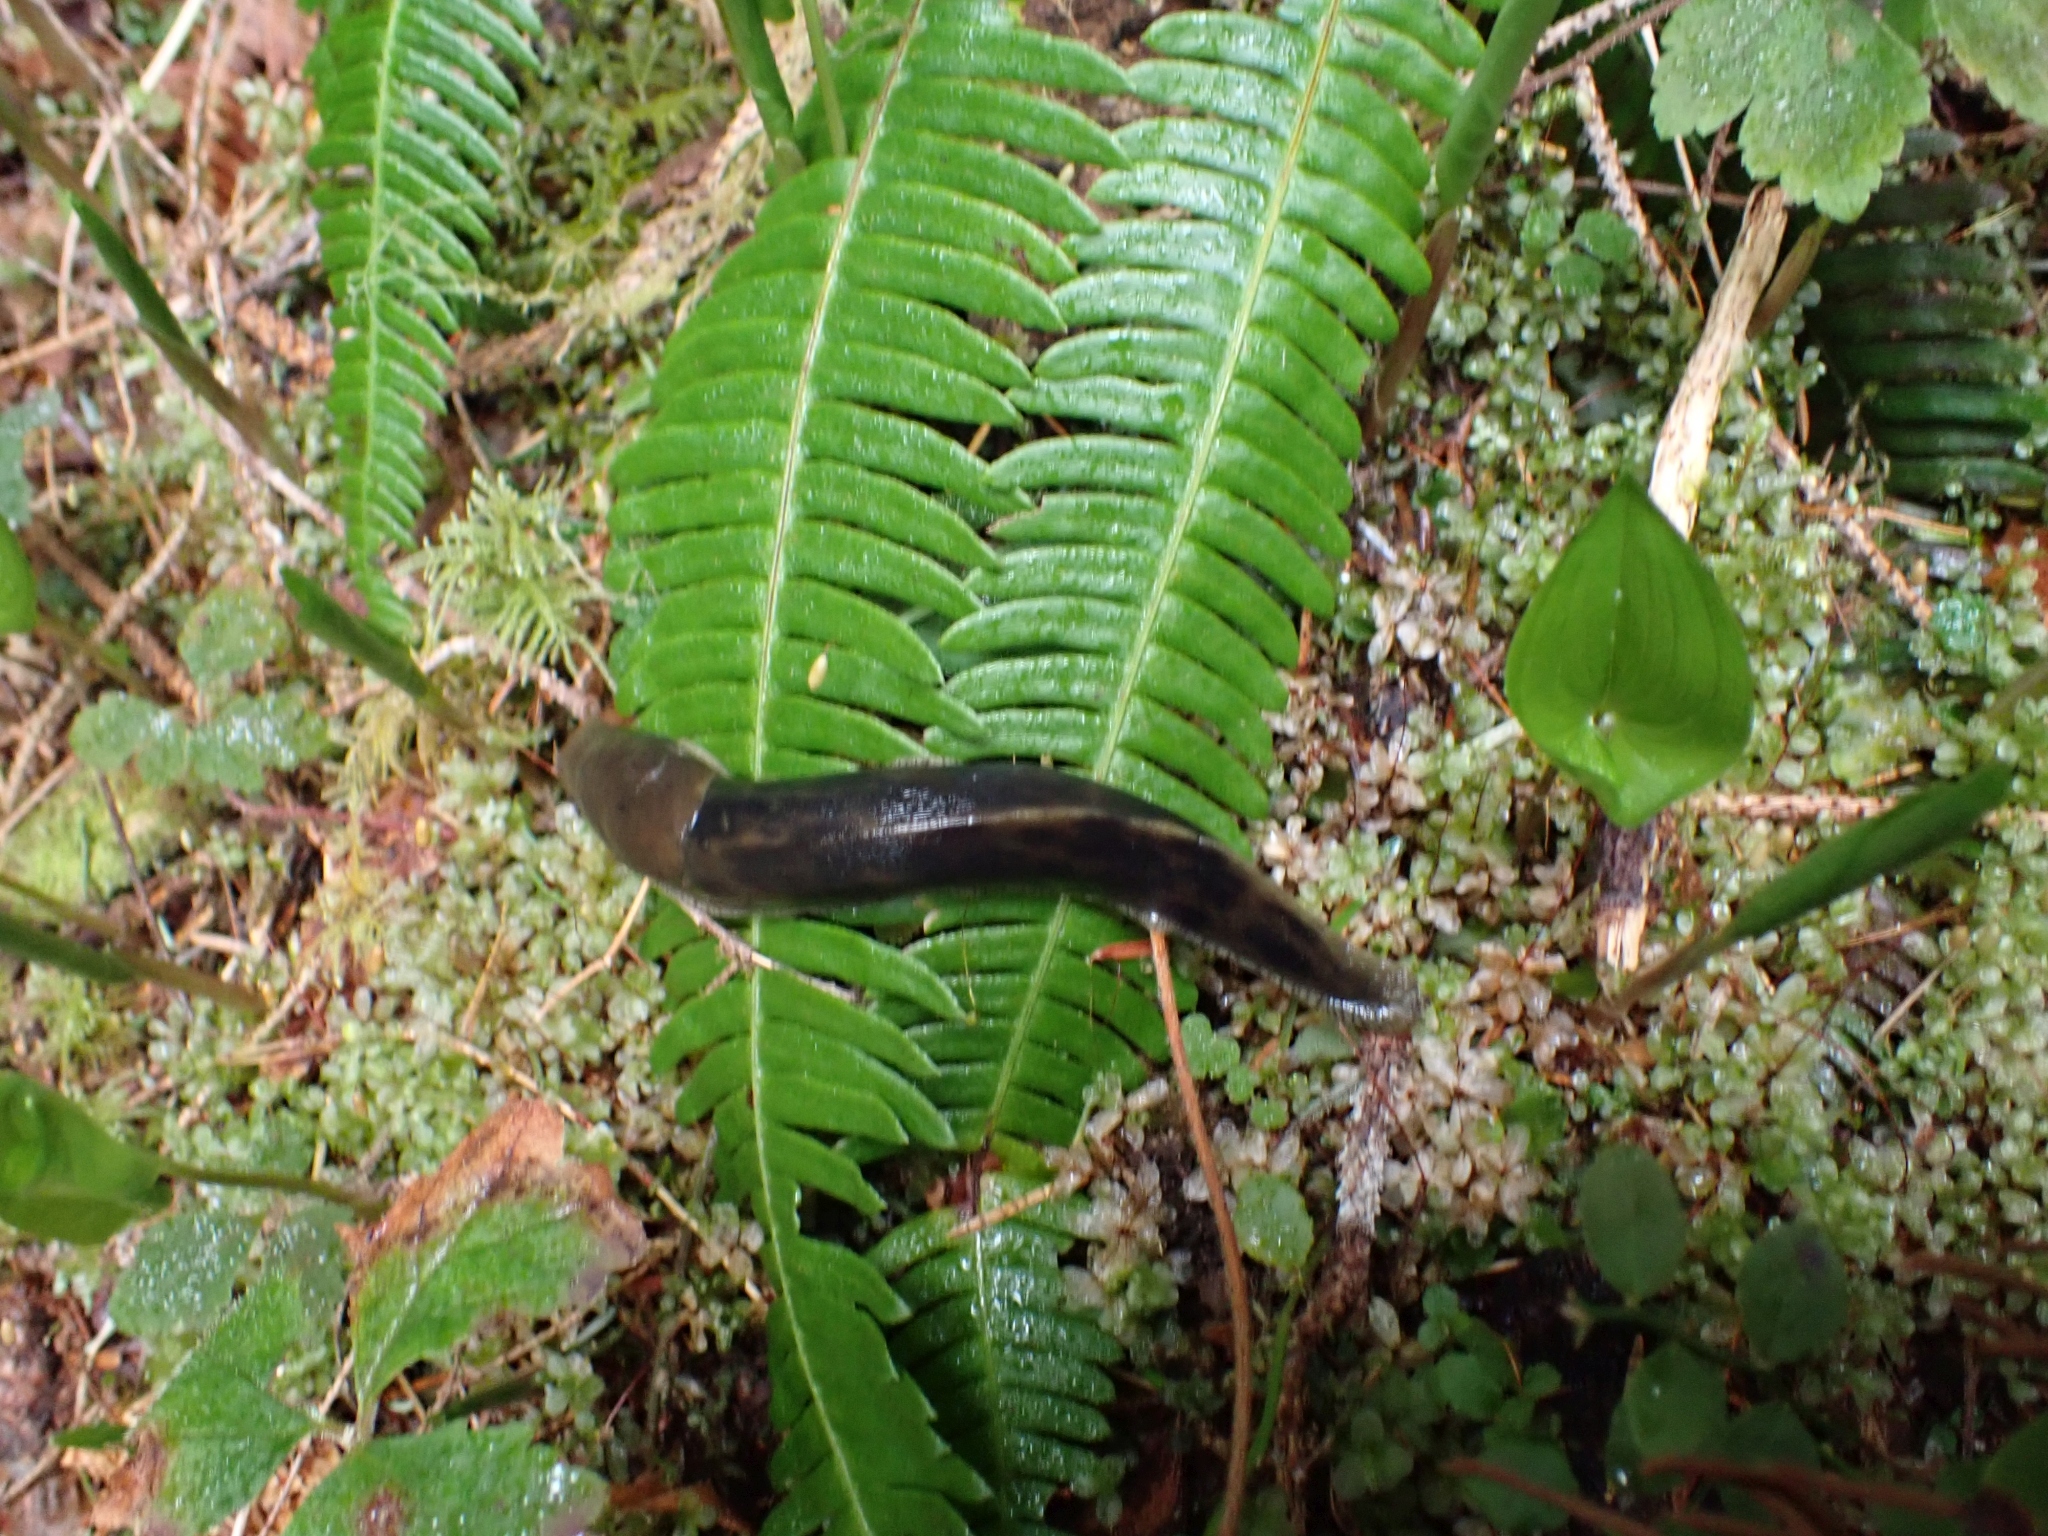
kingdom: Animalia
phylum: Mollusca
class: Gastropoda
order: Stylommatophora
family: Ariolimacidae
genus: Ariolimax
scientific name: Ariolimax columbianus
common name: Pacific banana slug
